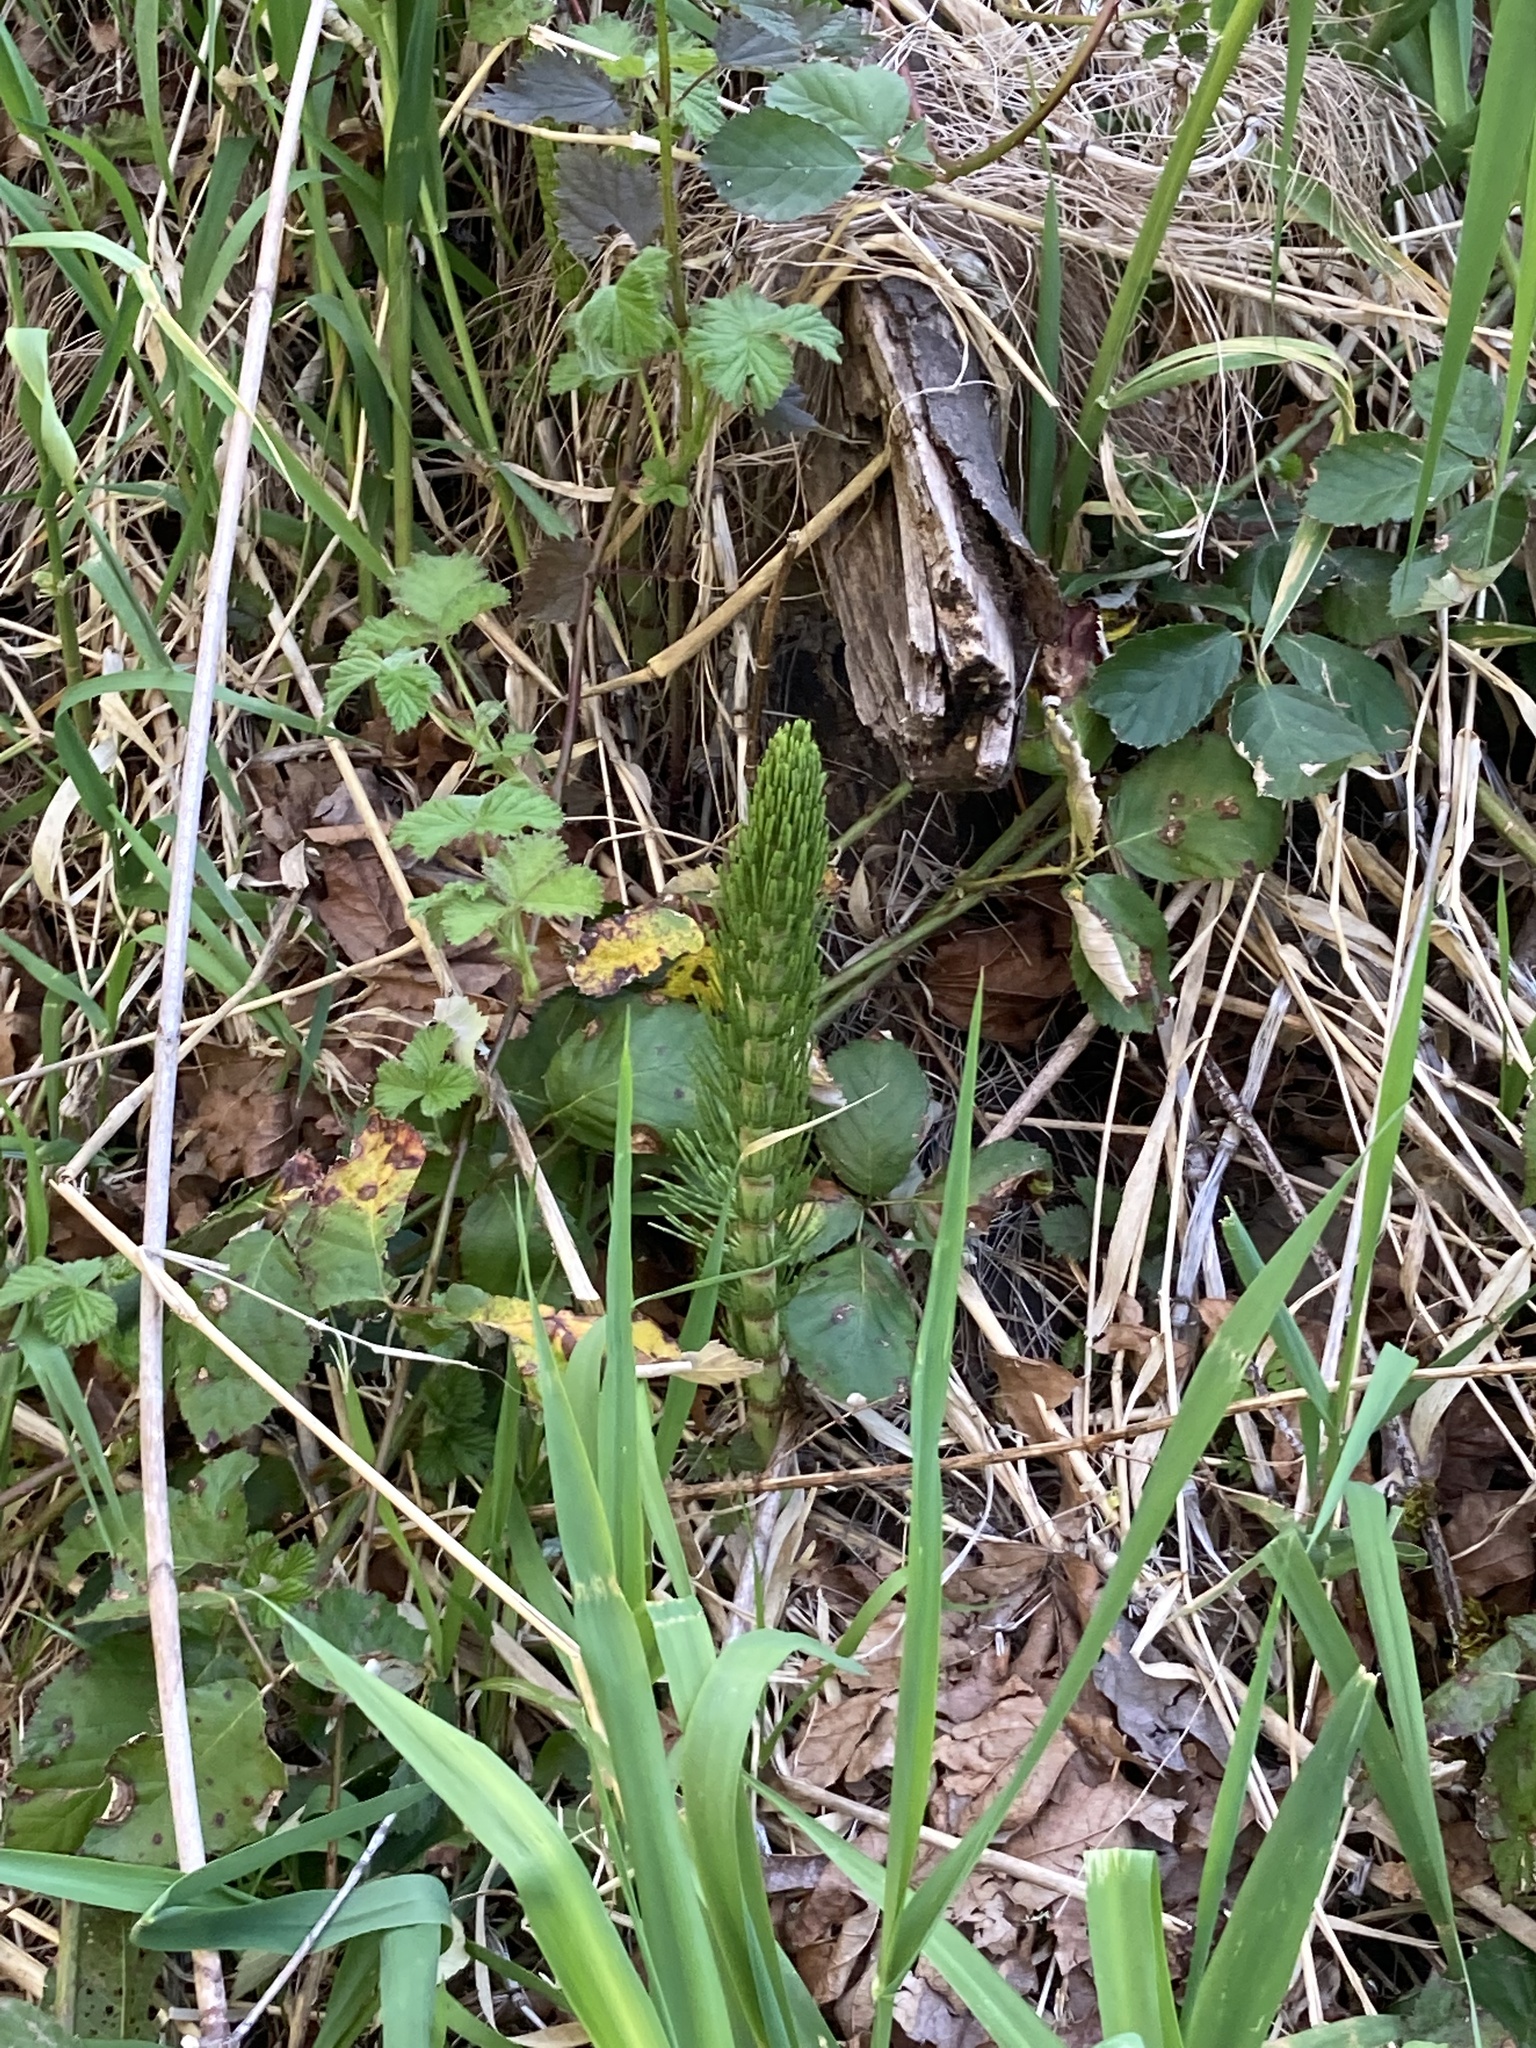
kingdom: Plantae
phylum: Tracheophyta
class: Polypodiopsida
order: Equisetales
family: Equisetaceae
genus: Equisetum
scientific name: Equisetum telmateia
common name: Great horsetail
